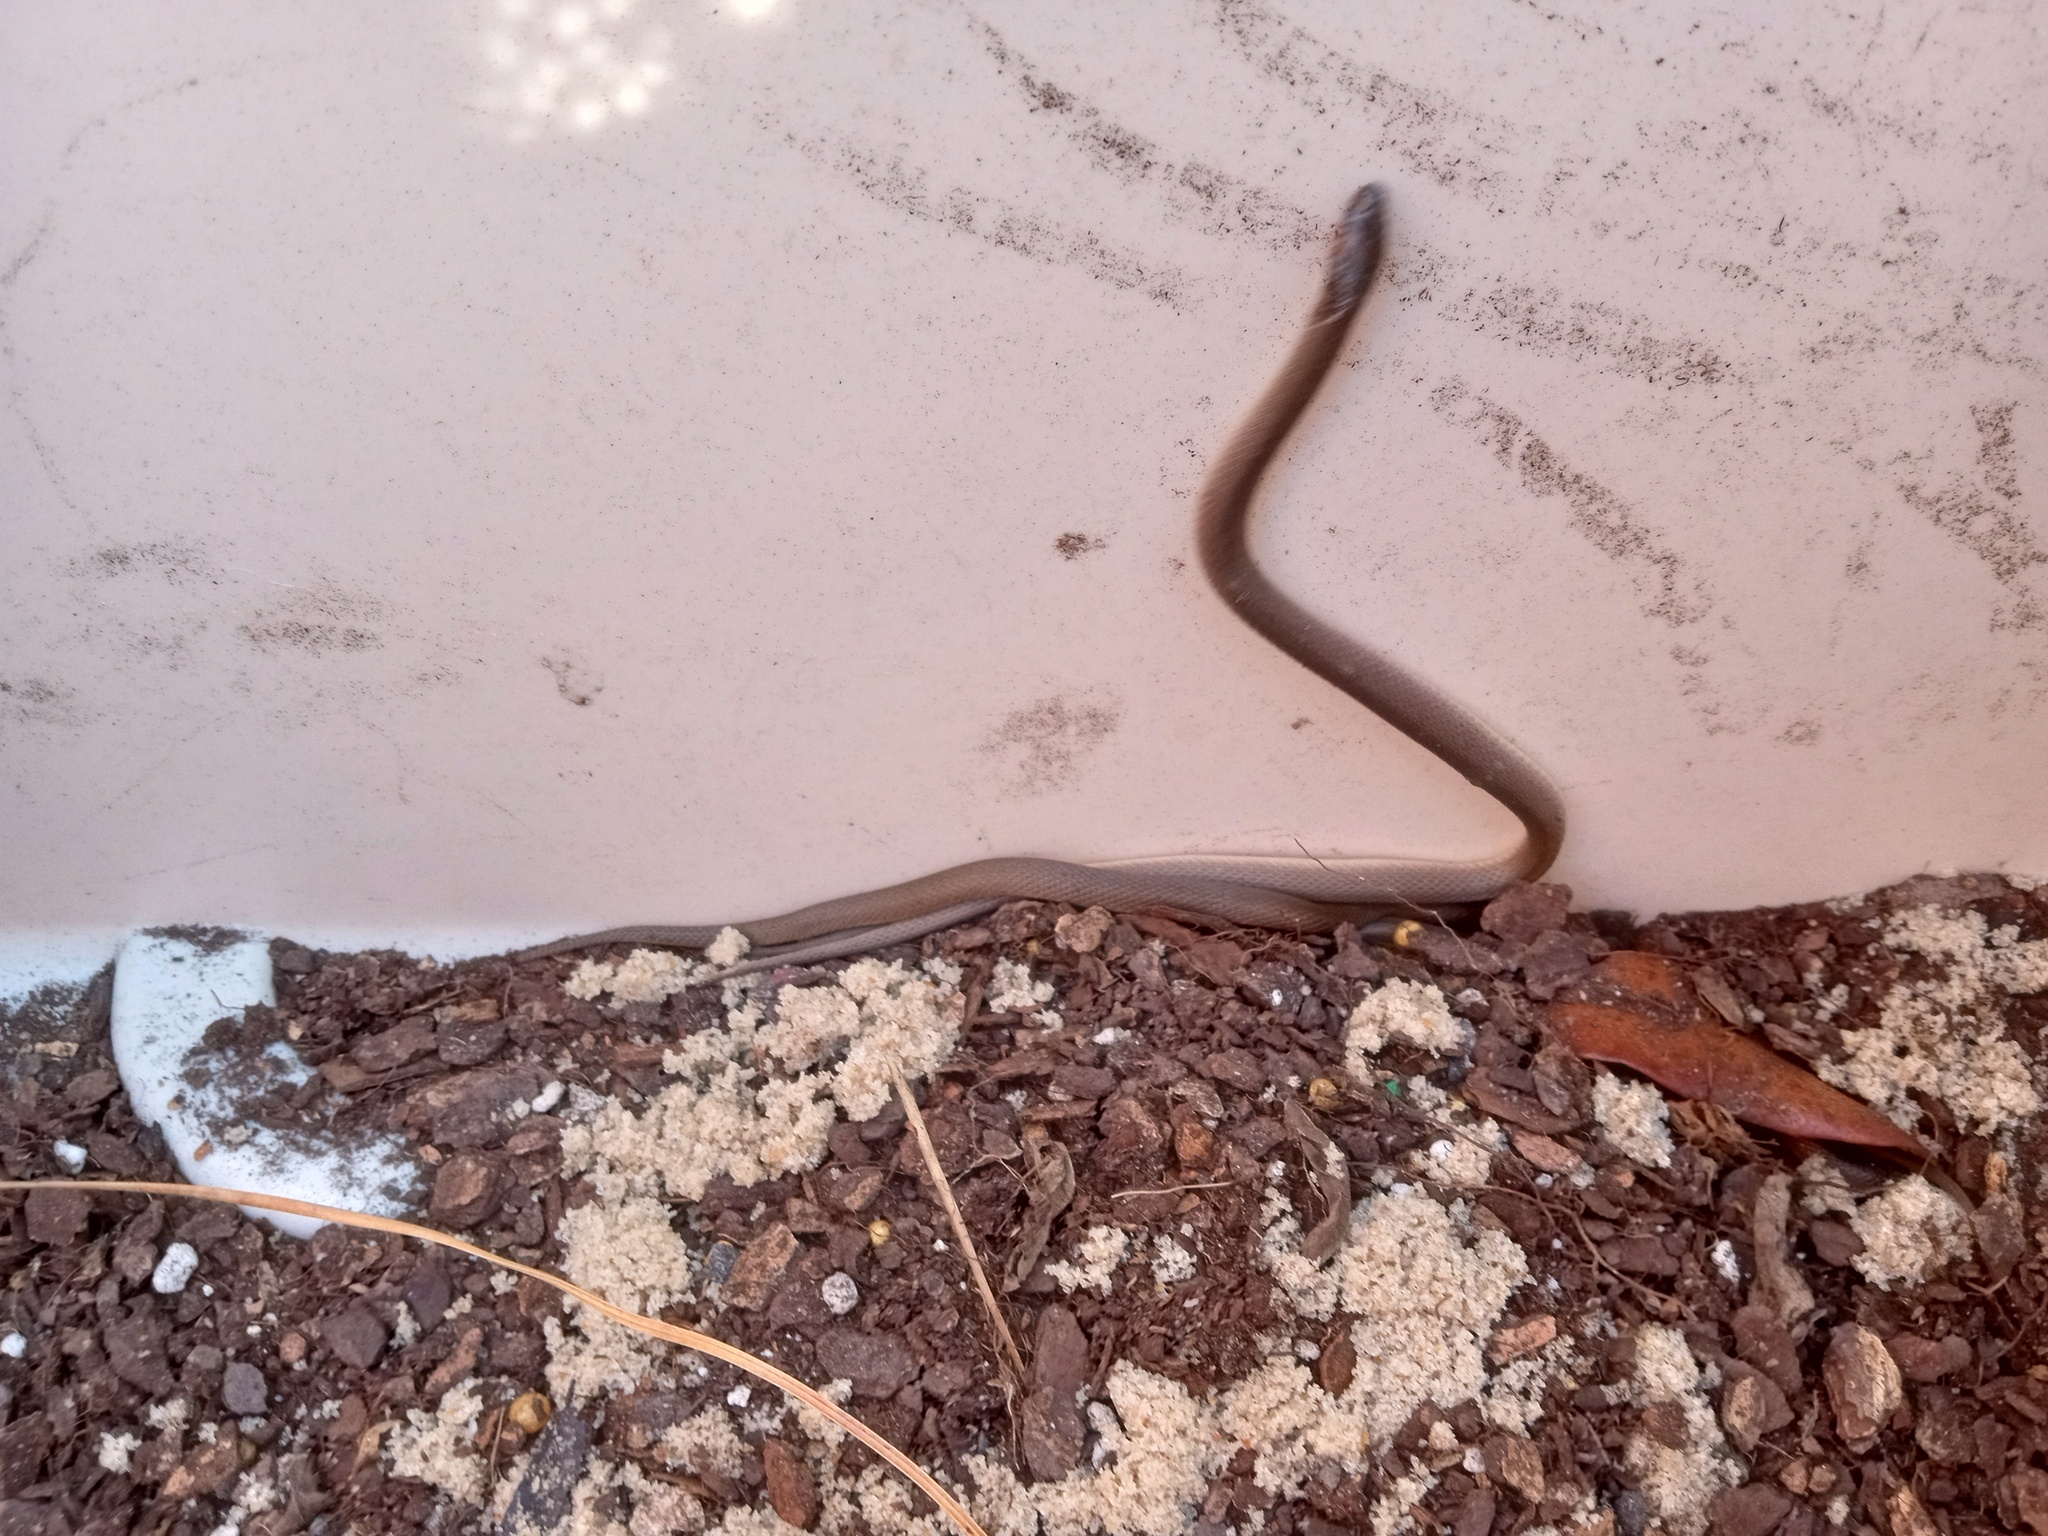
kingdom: Animalia
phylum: Chordata
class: Squamata
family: Colubridae
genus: Haldea
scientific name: Haldea striatula
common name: Rough earth snake
